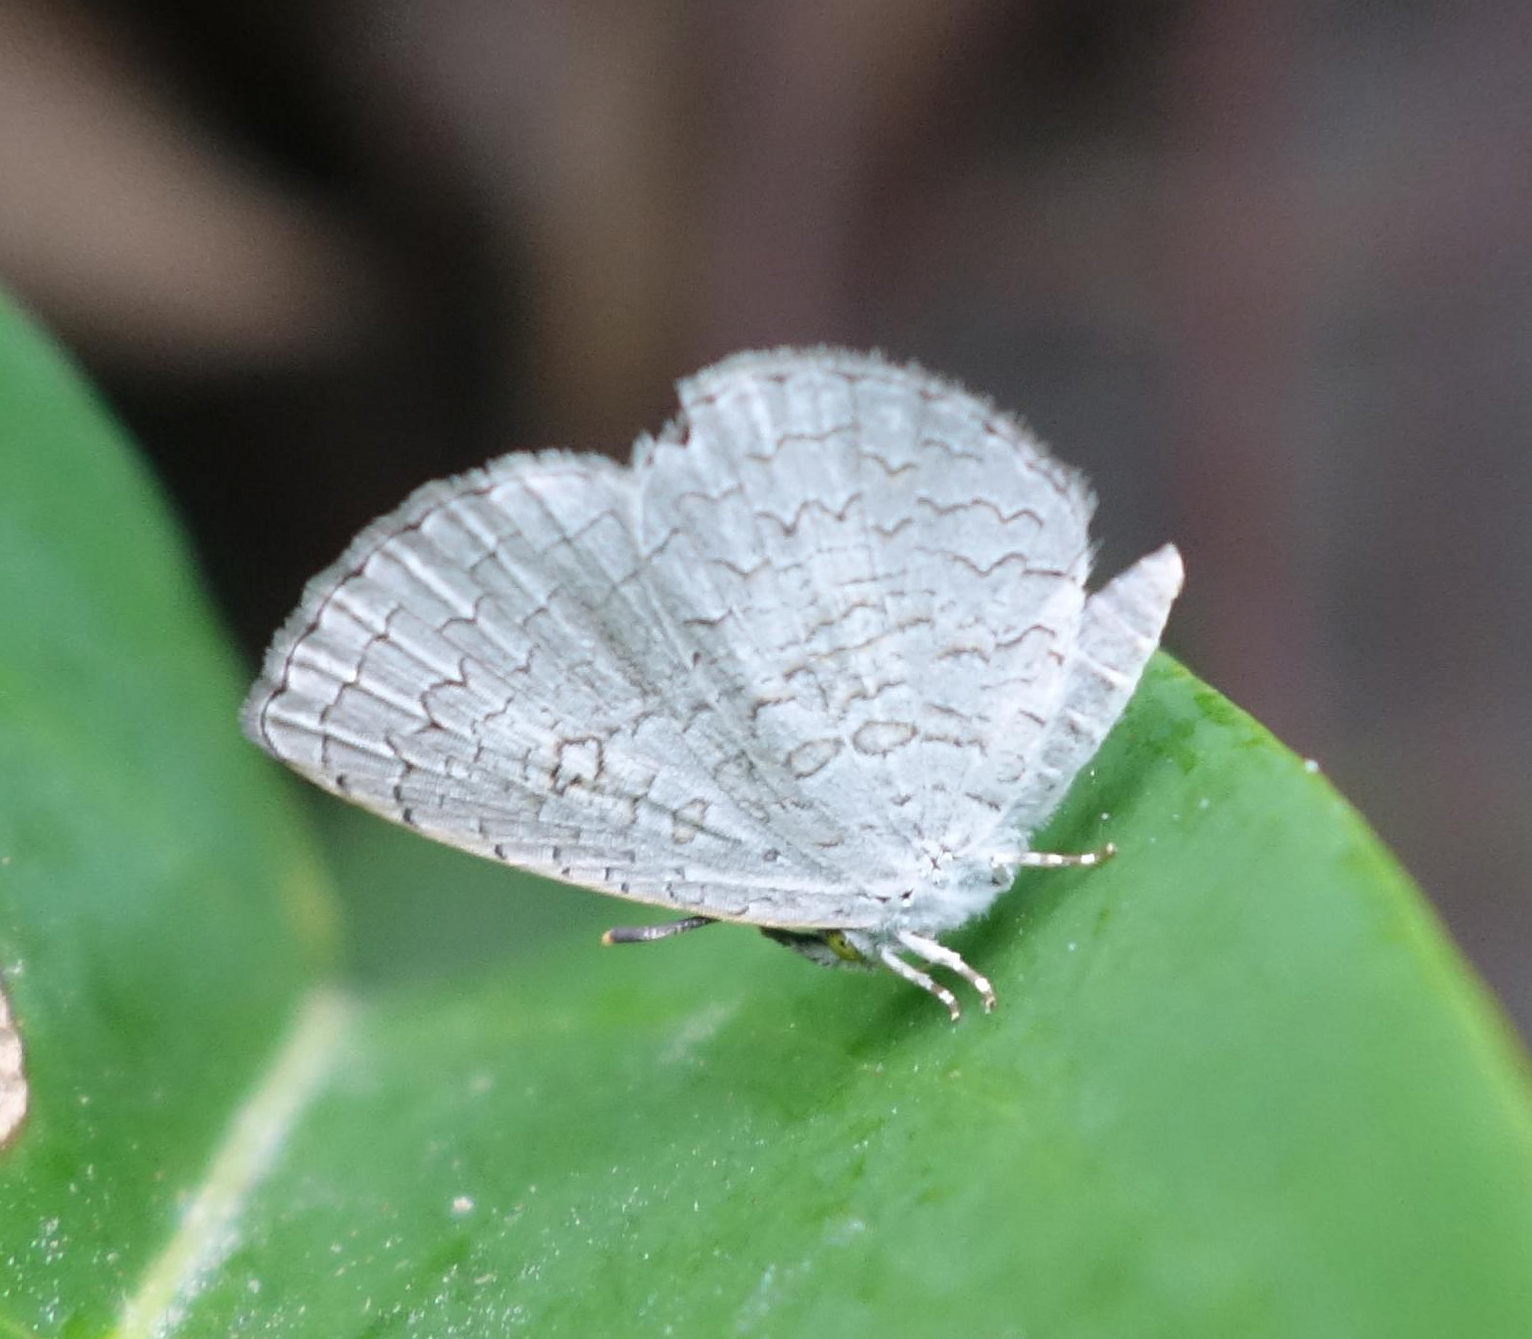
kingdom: Animalia
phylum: Arthropoda
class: Insecta
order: Lepidoptera
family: Lycaenidae
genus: Spalgis
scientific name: Spalgis epius
